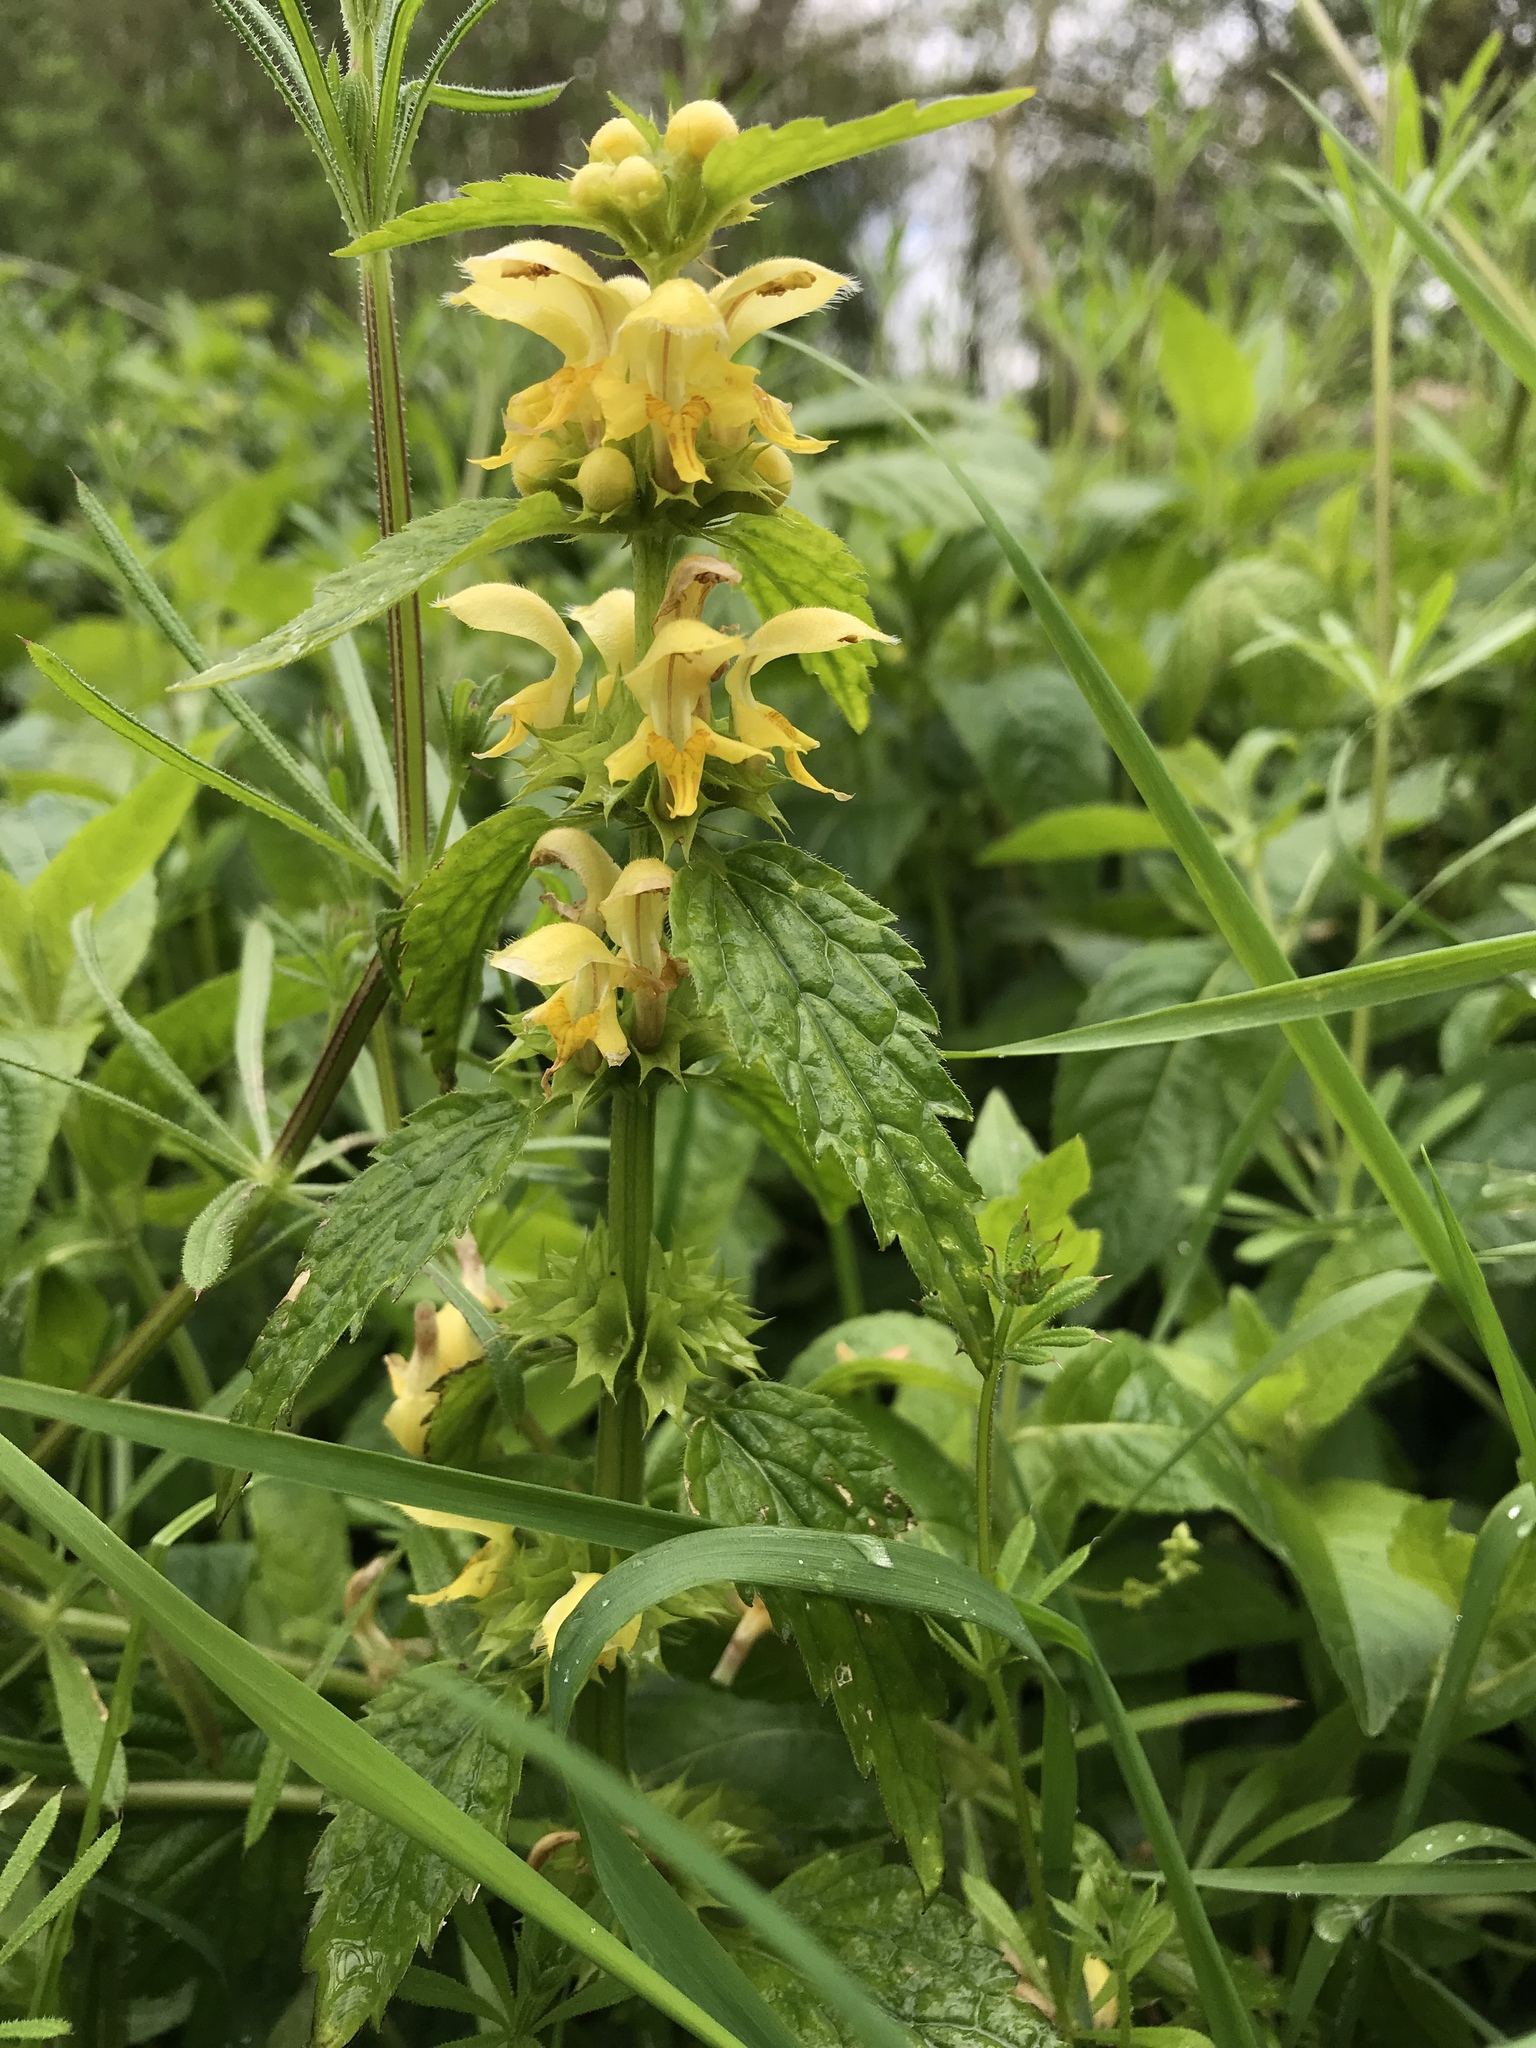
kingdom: Plantae
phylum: Tracheophyta
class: Magnoliopsida
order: Lamiales
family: Lamiaceae
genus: Lamium
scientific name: Lamium galeobdolon
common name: Yellow archangel
